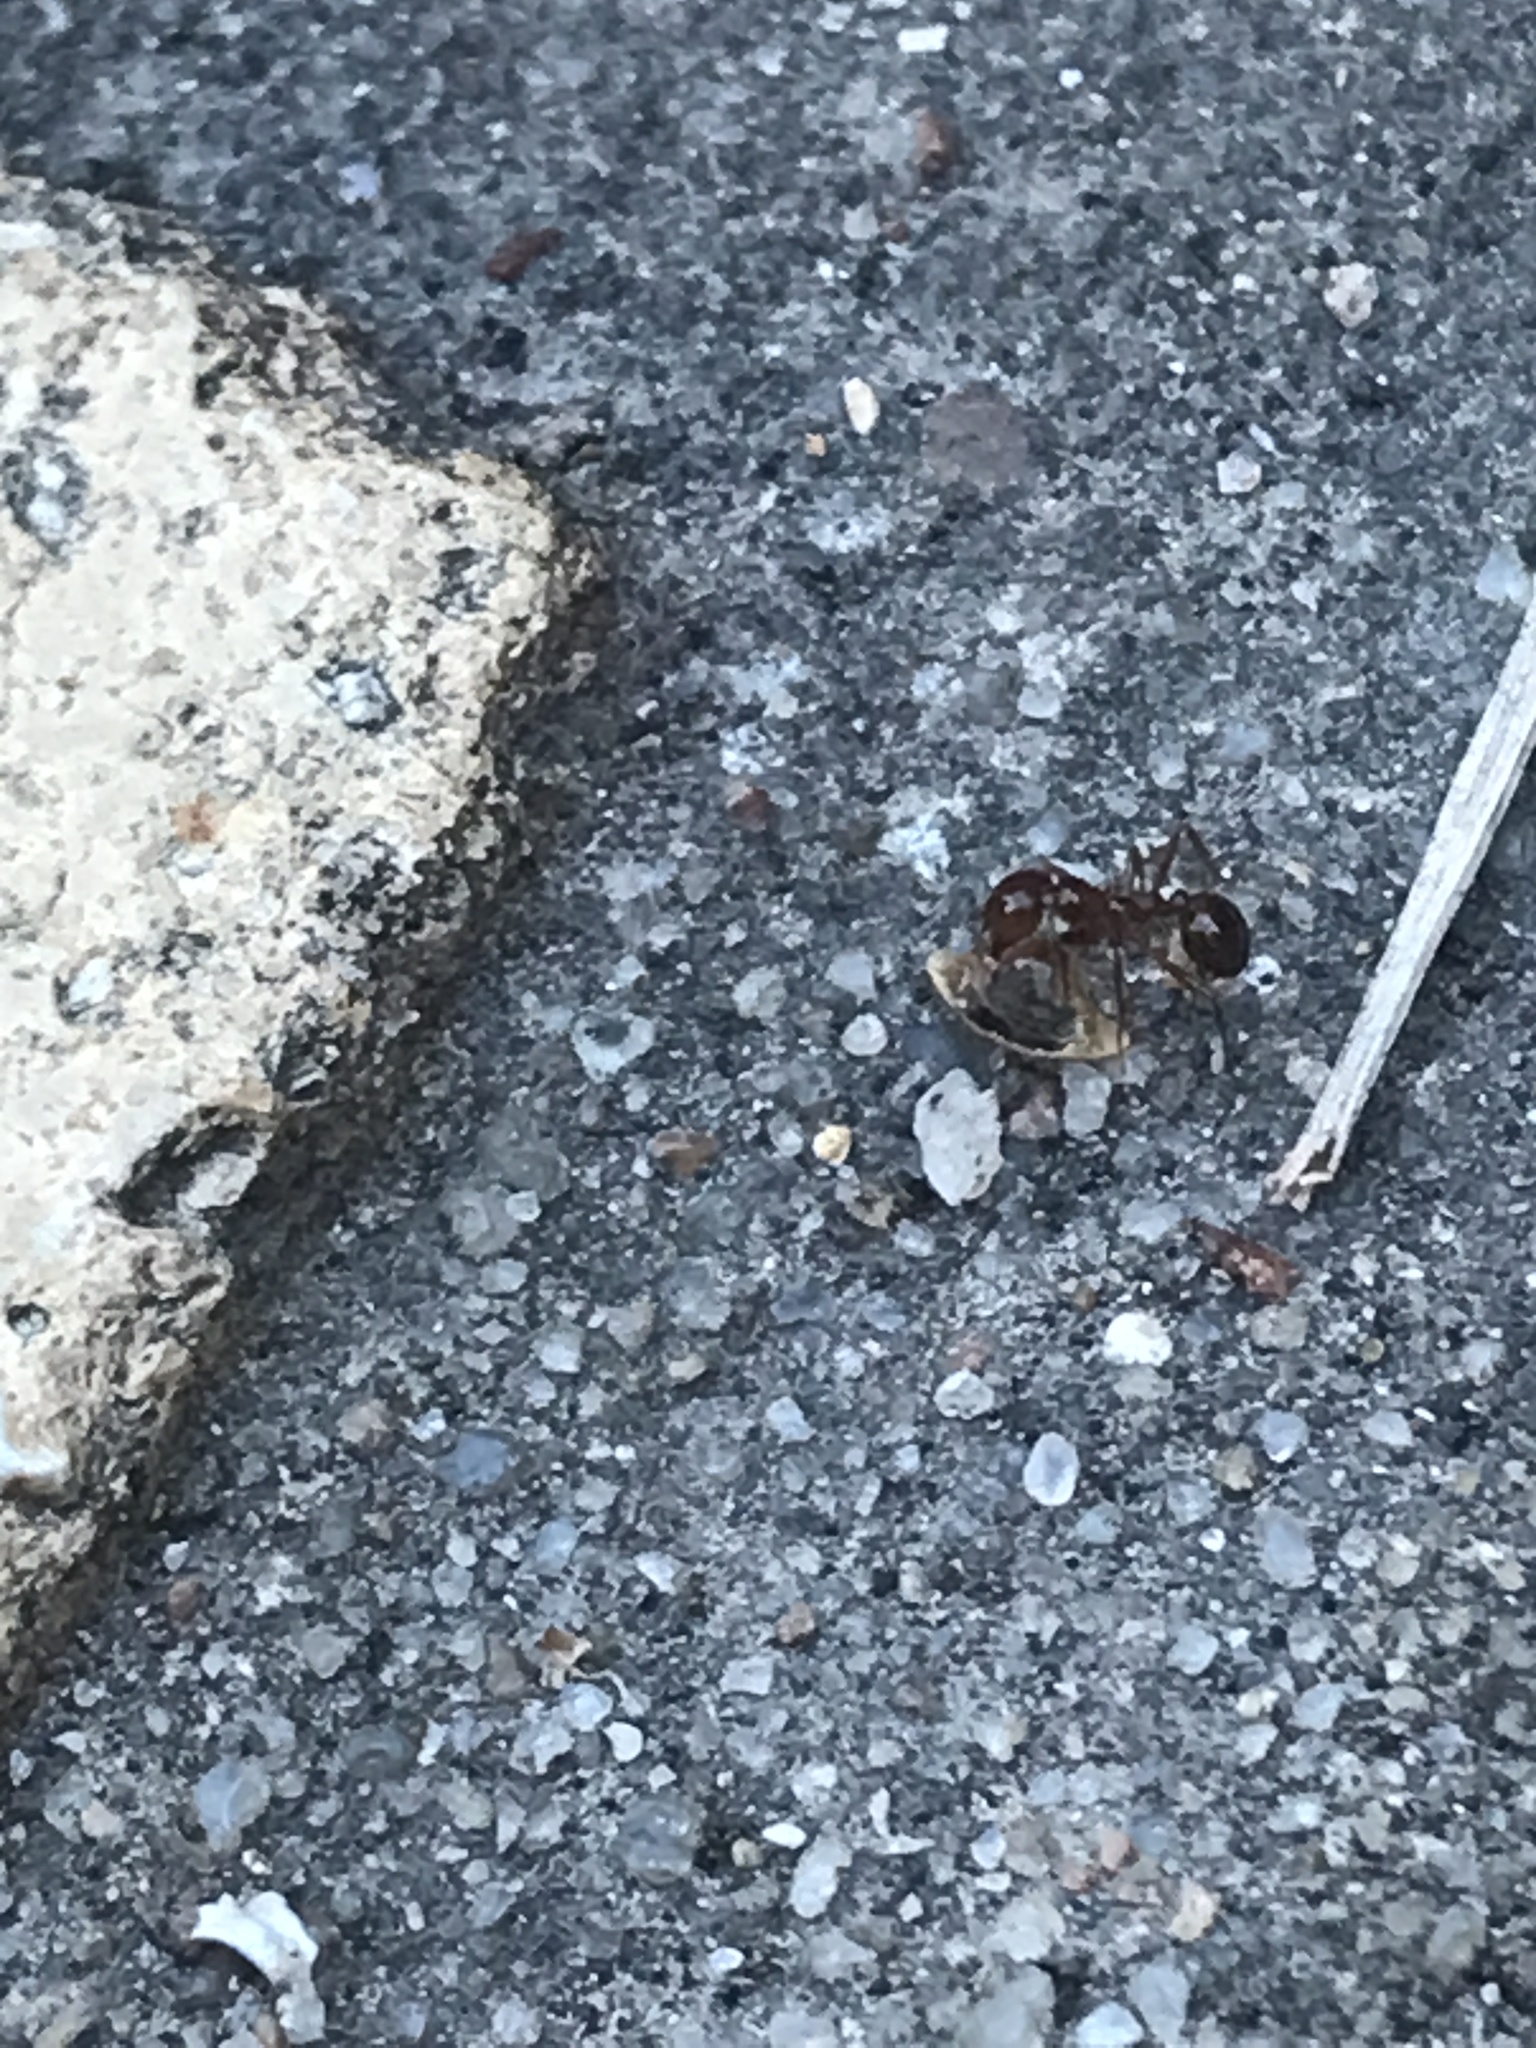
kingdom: Animalia
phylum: Arthropoda
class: Insecta
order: Hymenoptera
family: Formicidae
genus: Solenopsis
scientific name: Solenopsis invicta
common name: Red imported fire ant
